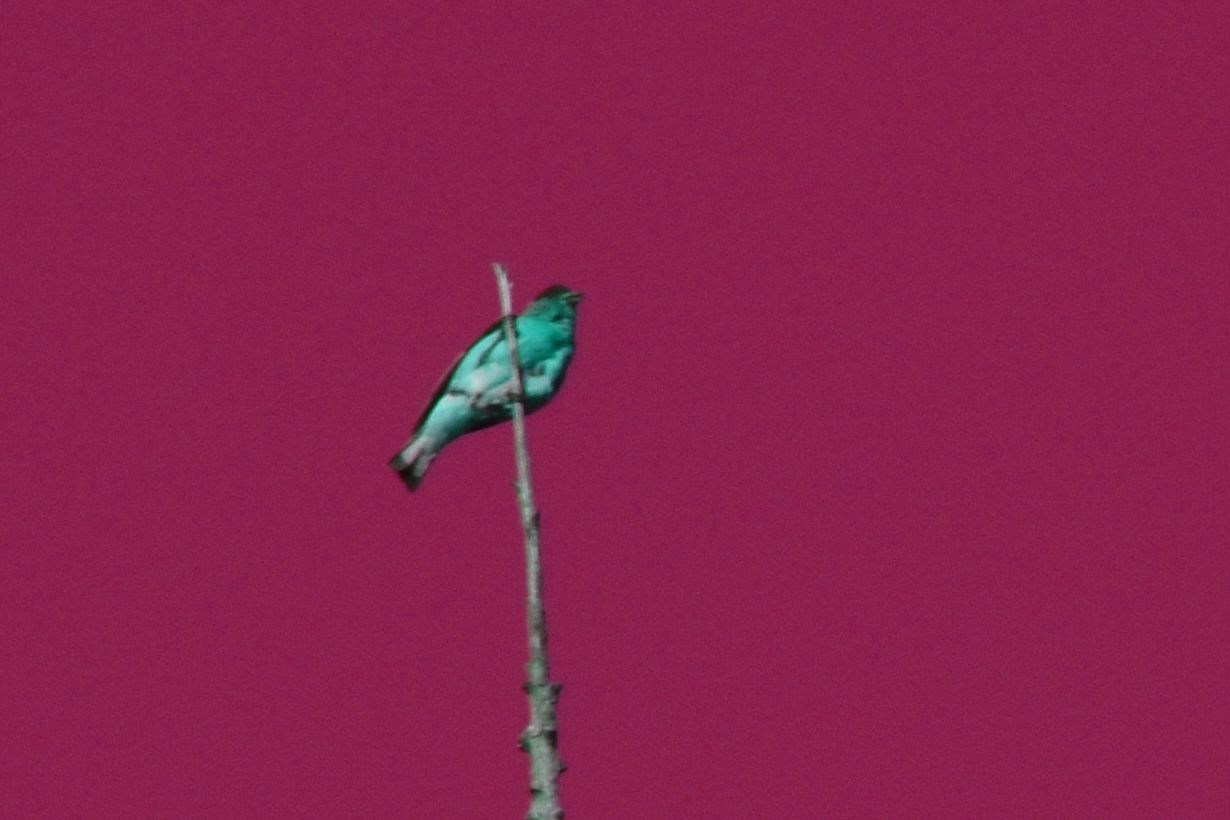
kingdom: Animalia
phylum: Chordata
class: Aves
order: Passeriformes
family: Fringillidae
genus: Spinus
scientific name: Spinus psaltria
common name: Lesser goldfinch
